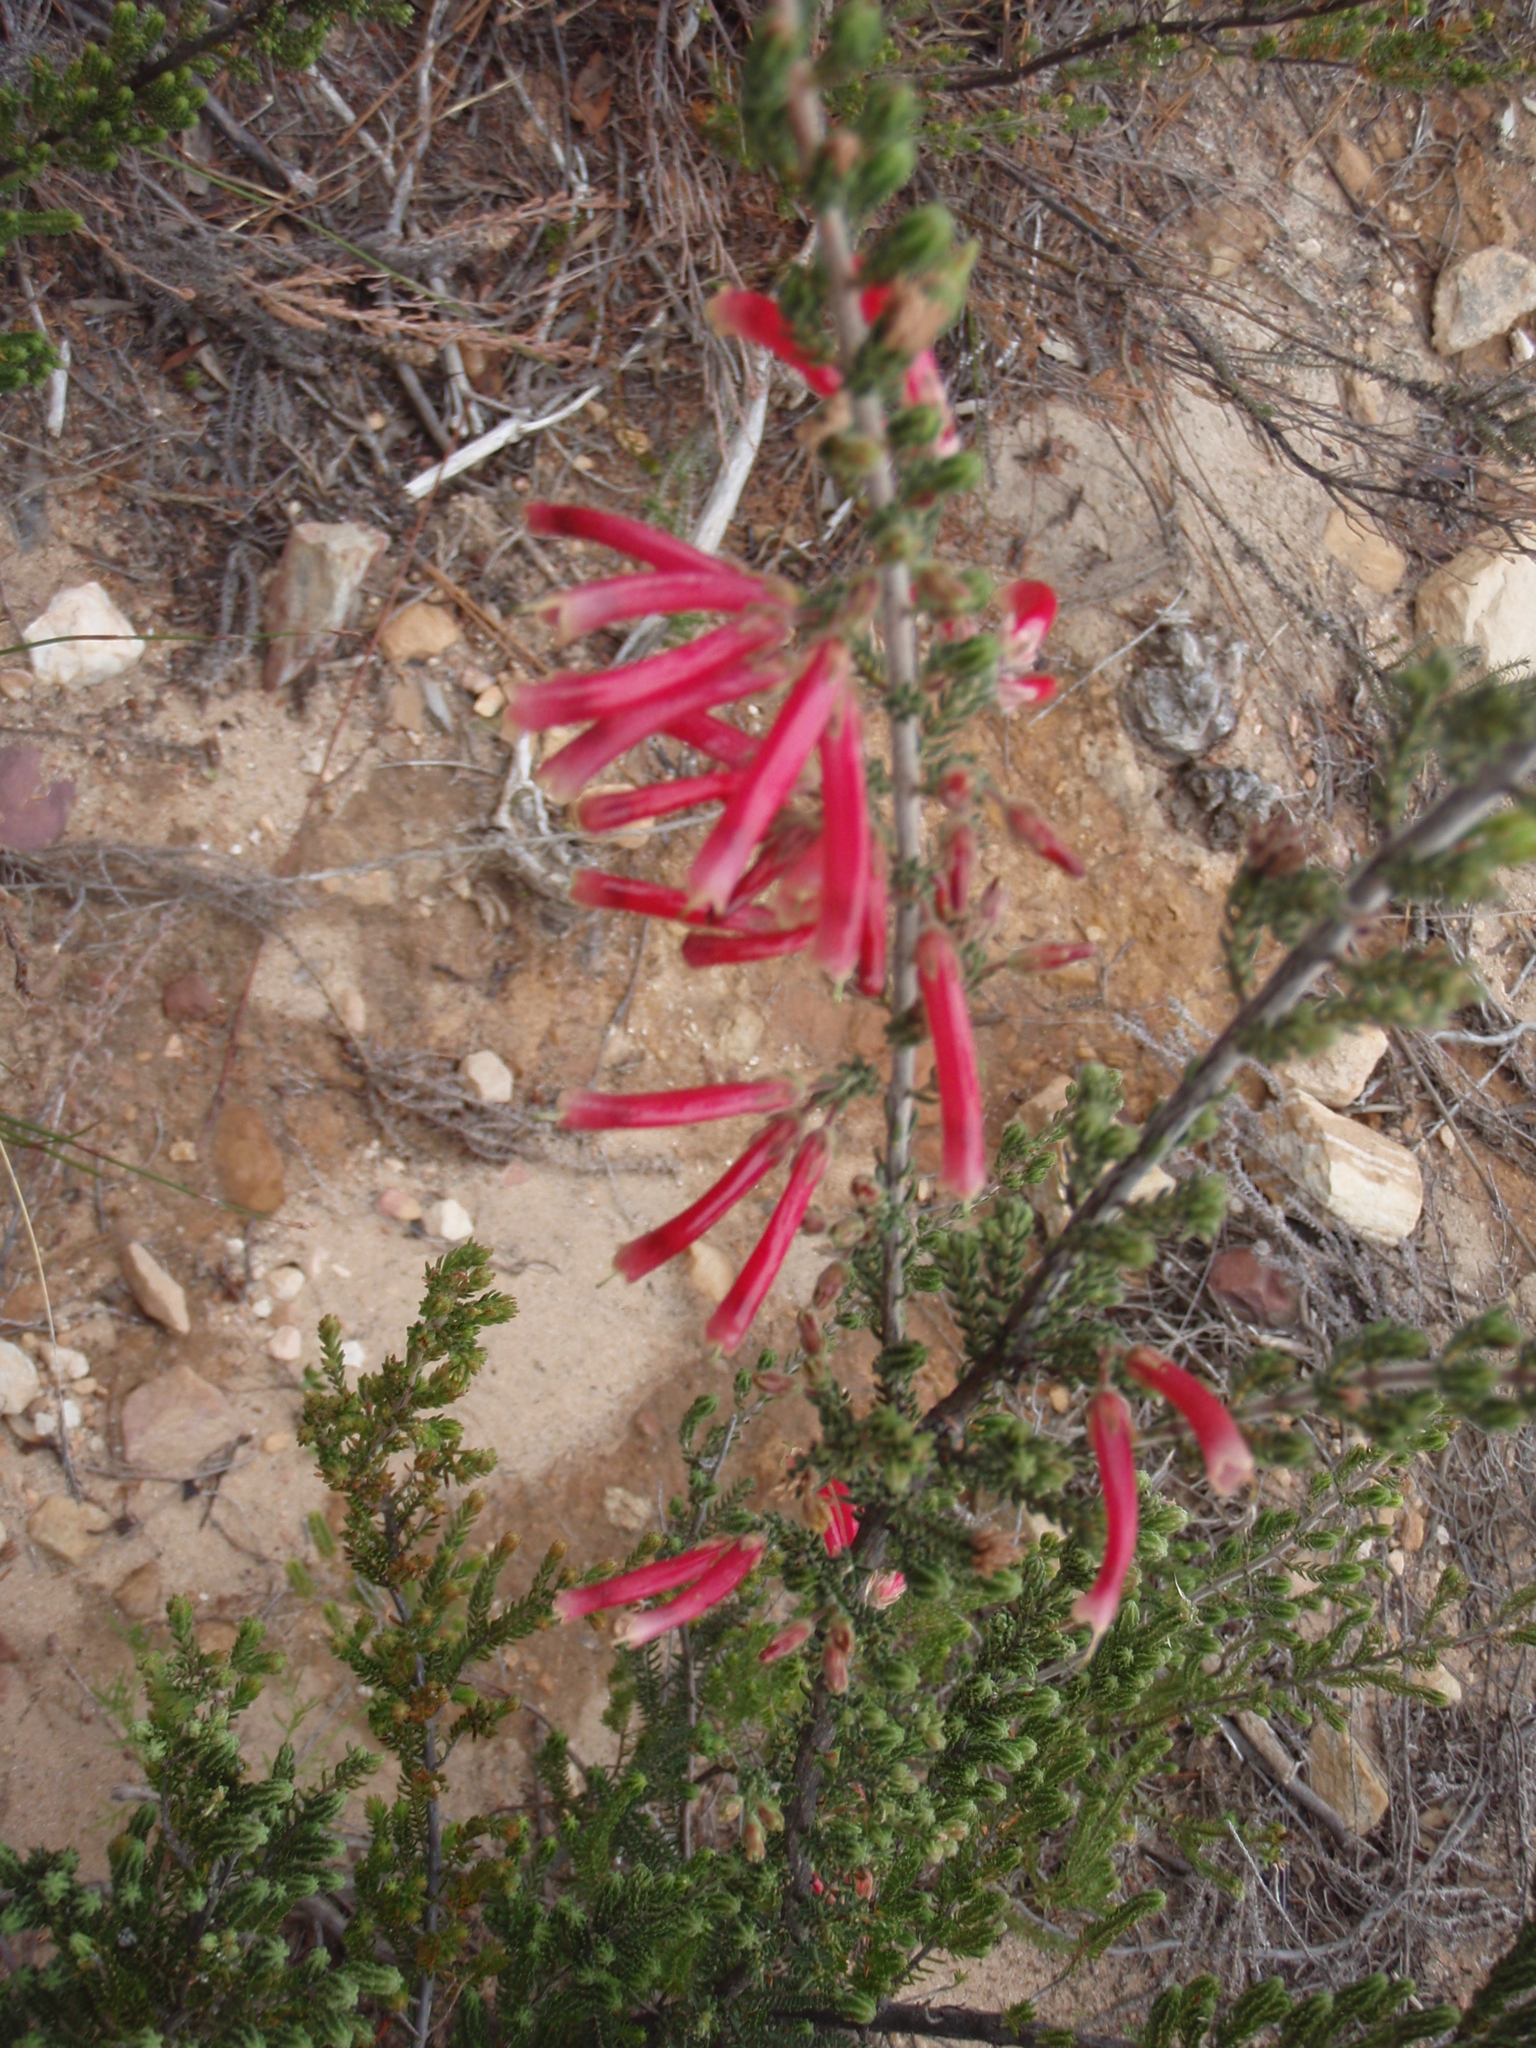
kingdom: Plantae
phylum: Tracheophyta
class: Magnoliopsida
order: Ericales
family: Ericaceae
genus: Erica
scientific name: Erica discolor
